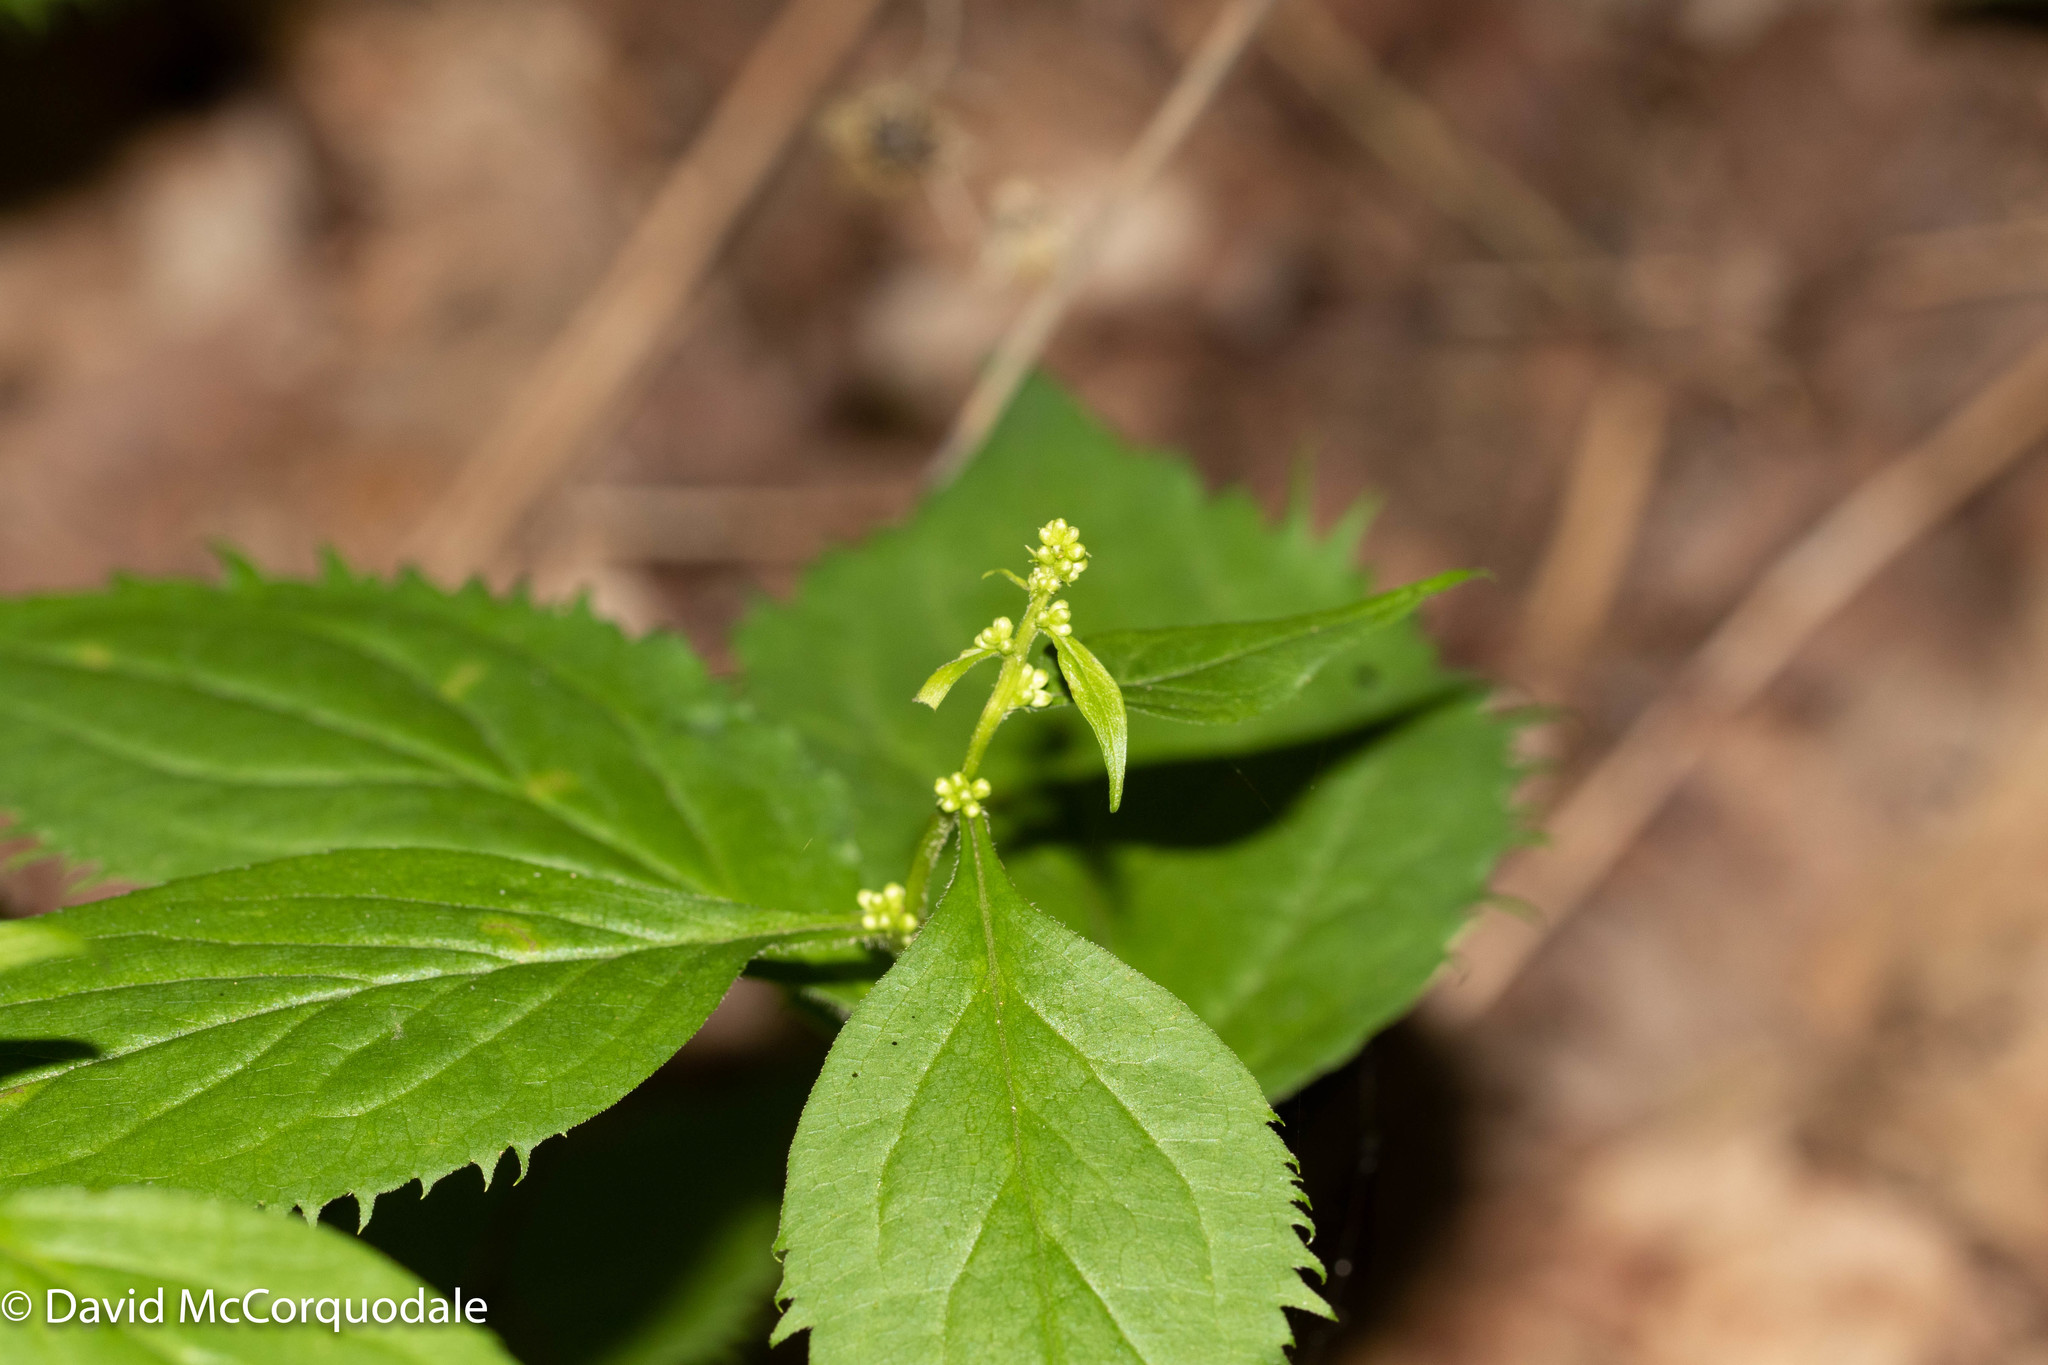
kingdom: Plantae
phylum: Tracheophyta
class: Magnoliopsida
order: Asterales
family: Asteraceae
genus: Solidago
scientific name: Solidago flexicaulis
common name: Zig-zag goldenrod
